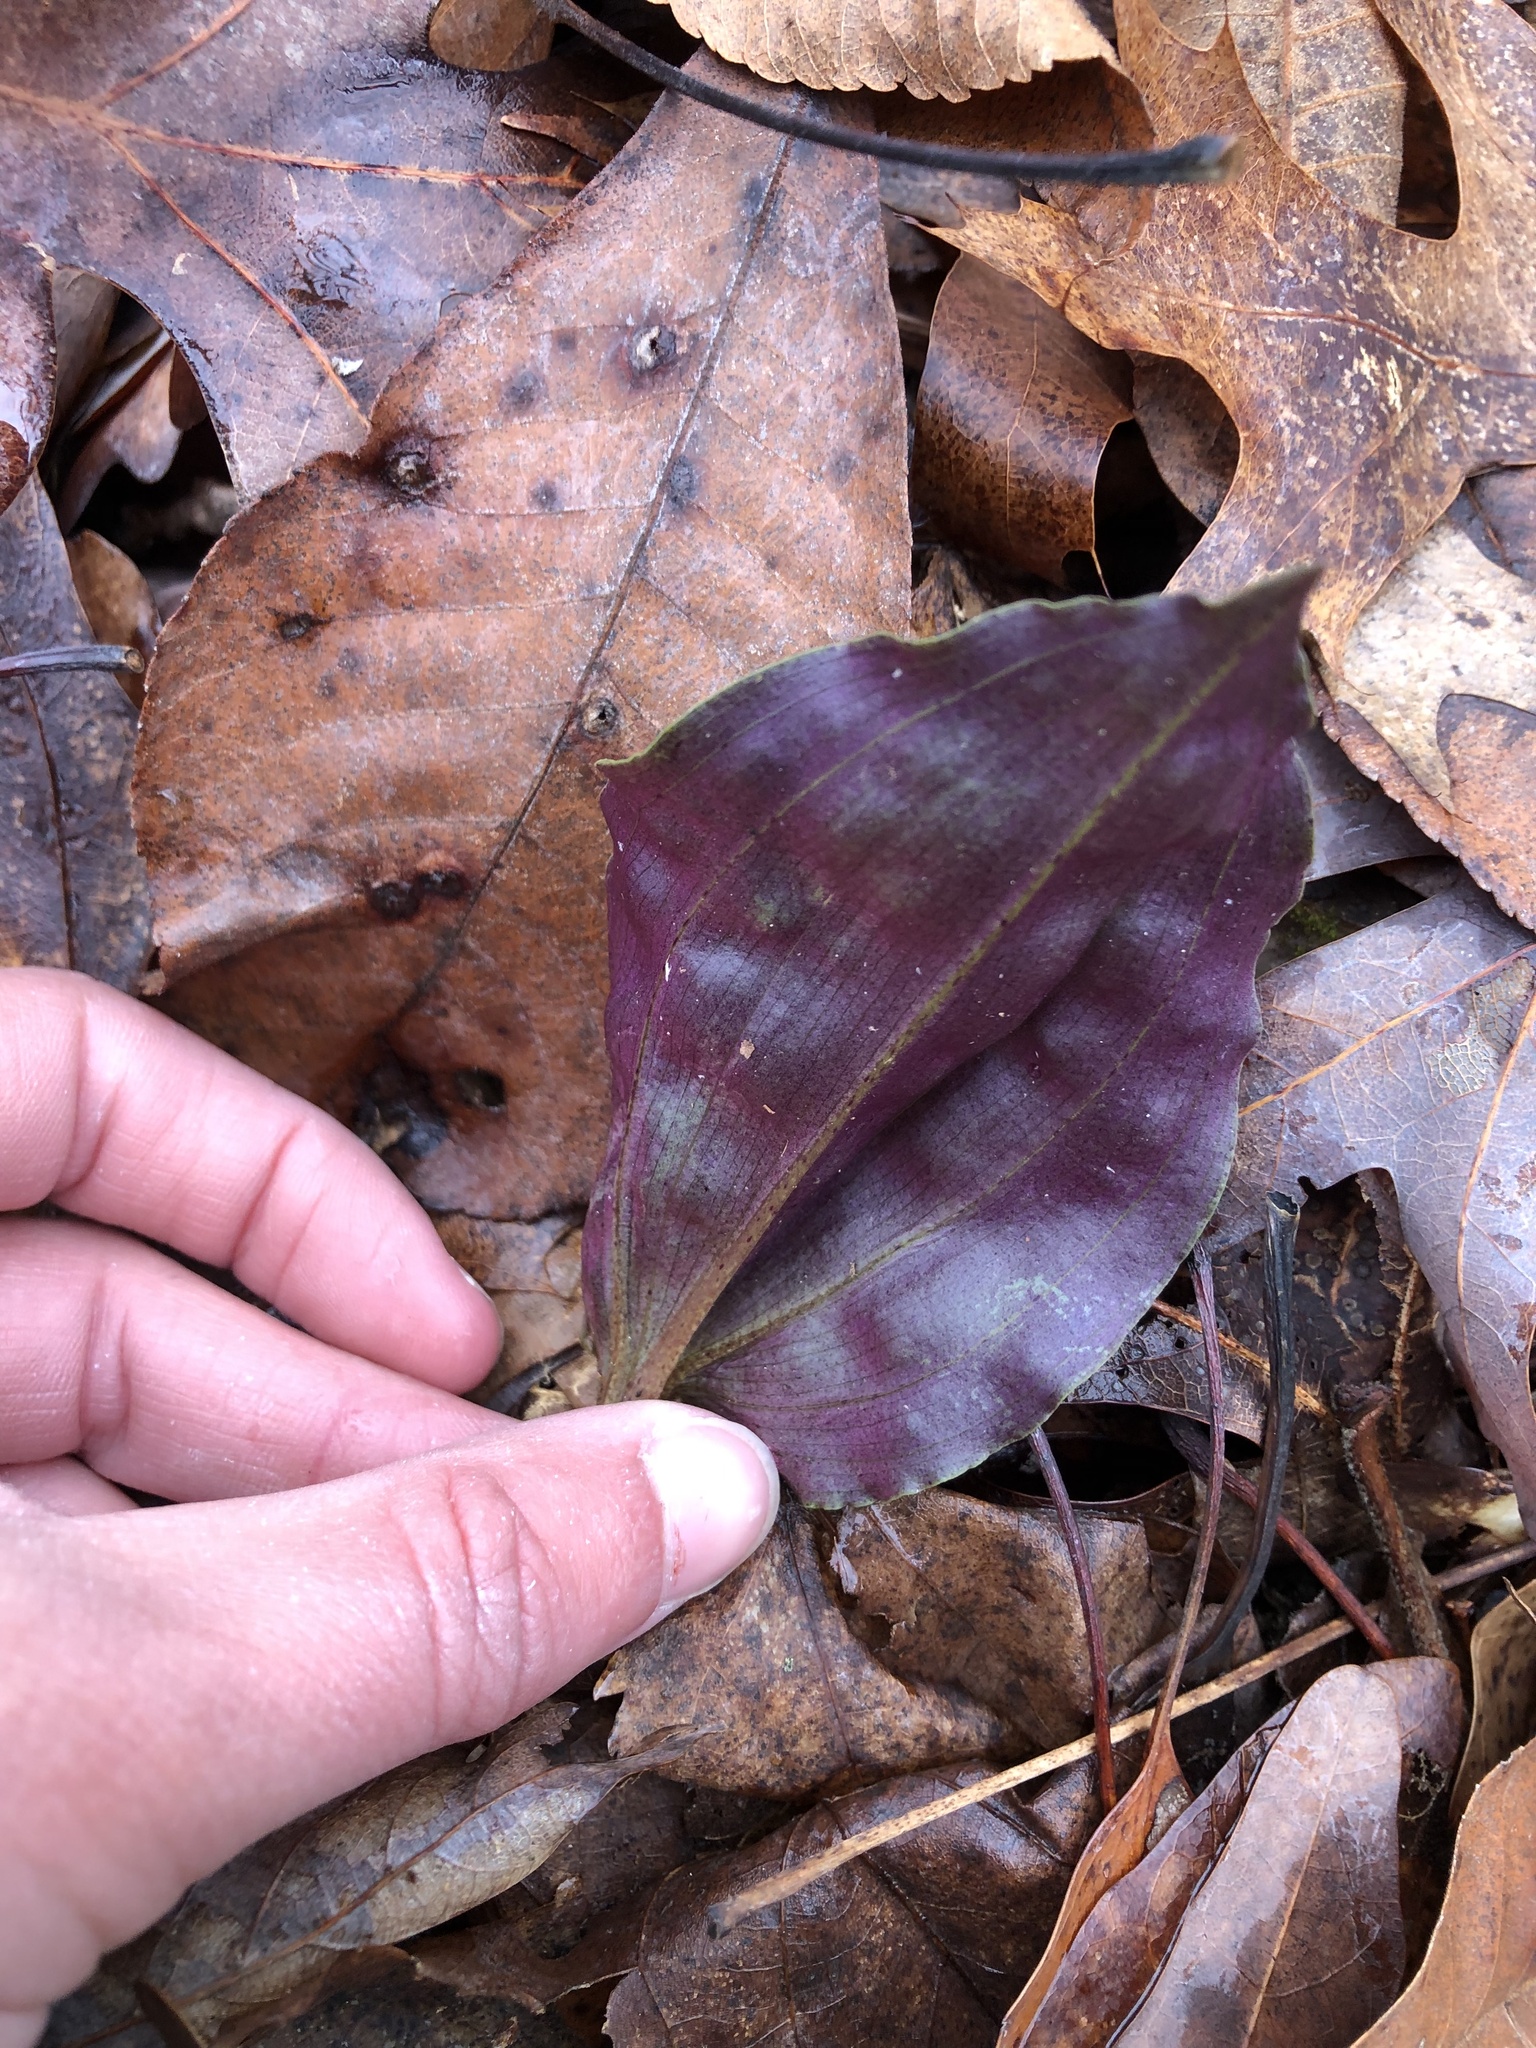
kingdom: Plantae
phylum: Tracheophyta
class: Liliopsida
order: Asparagales
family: Orchidaceae
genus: Tipularia
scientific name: Tipularia discolor
